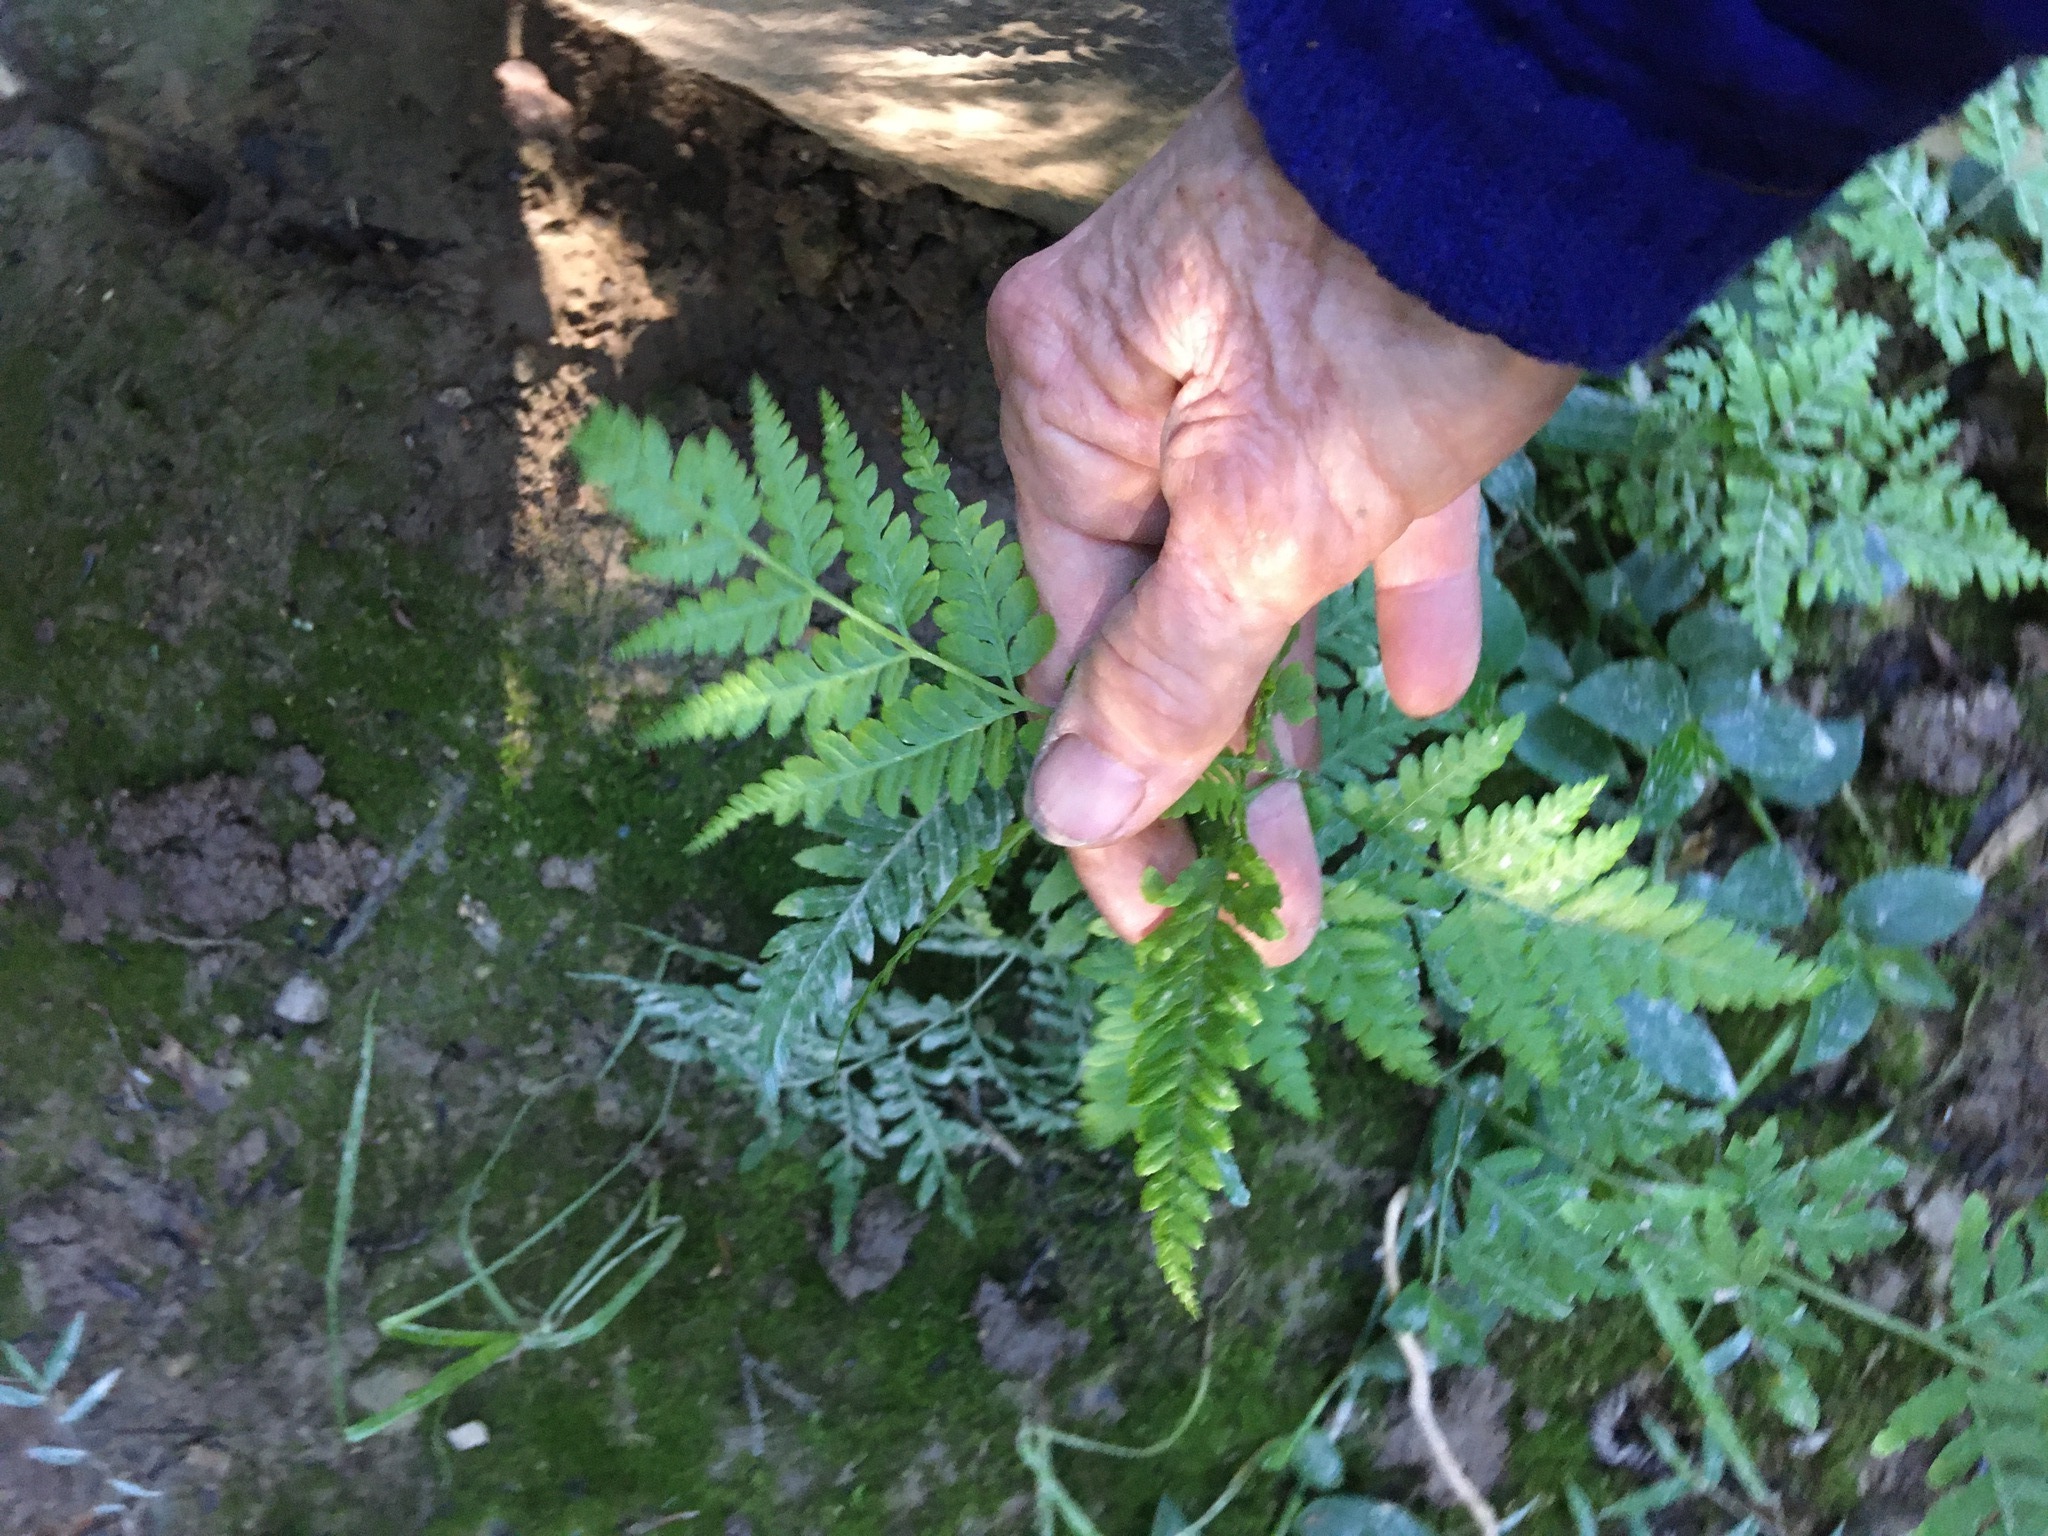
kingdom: Plantae
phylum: Tracheophyta
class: Polypodiopsida
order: Polypodiales
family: Pteridaceae
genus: Pteris
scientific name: Pteris tremula
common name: Australian brake
